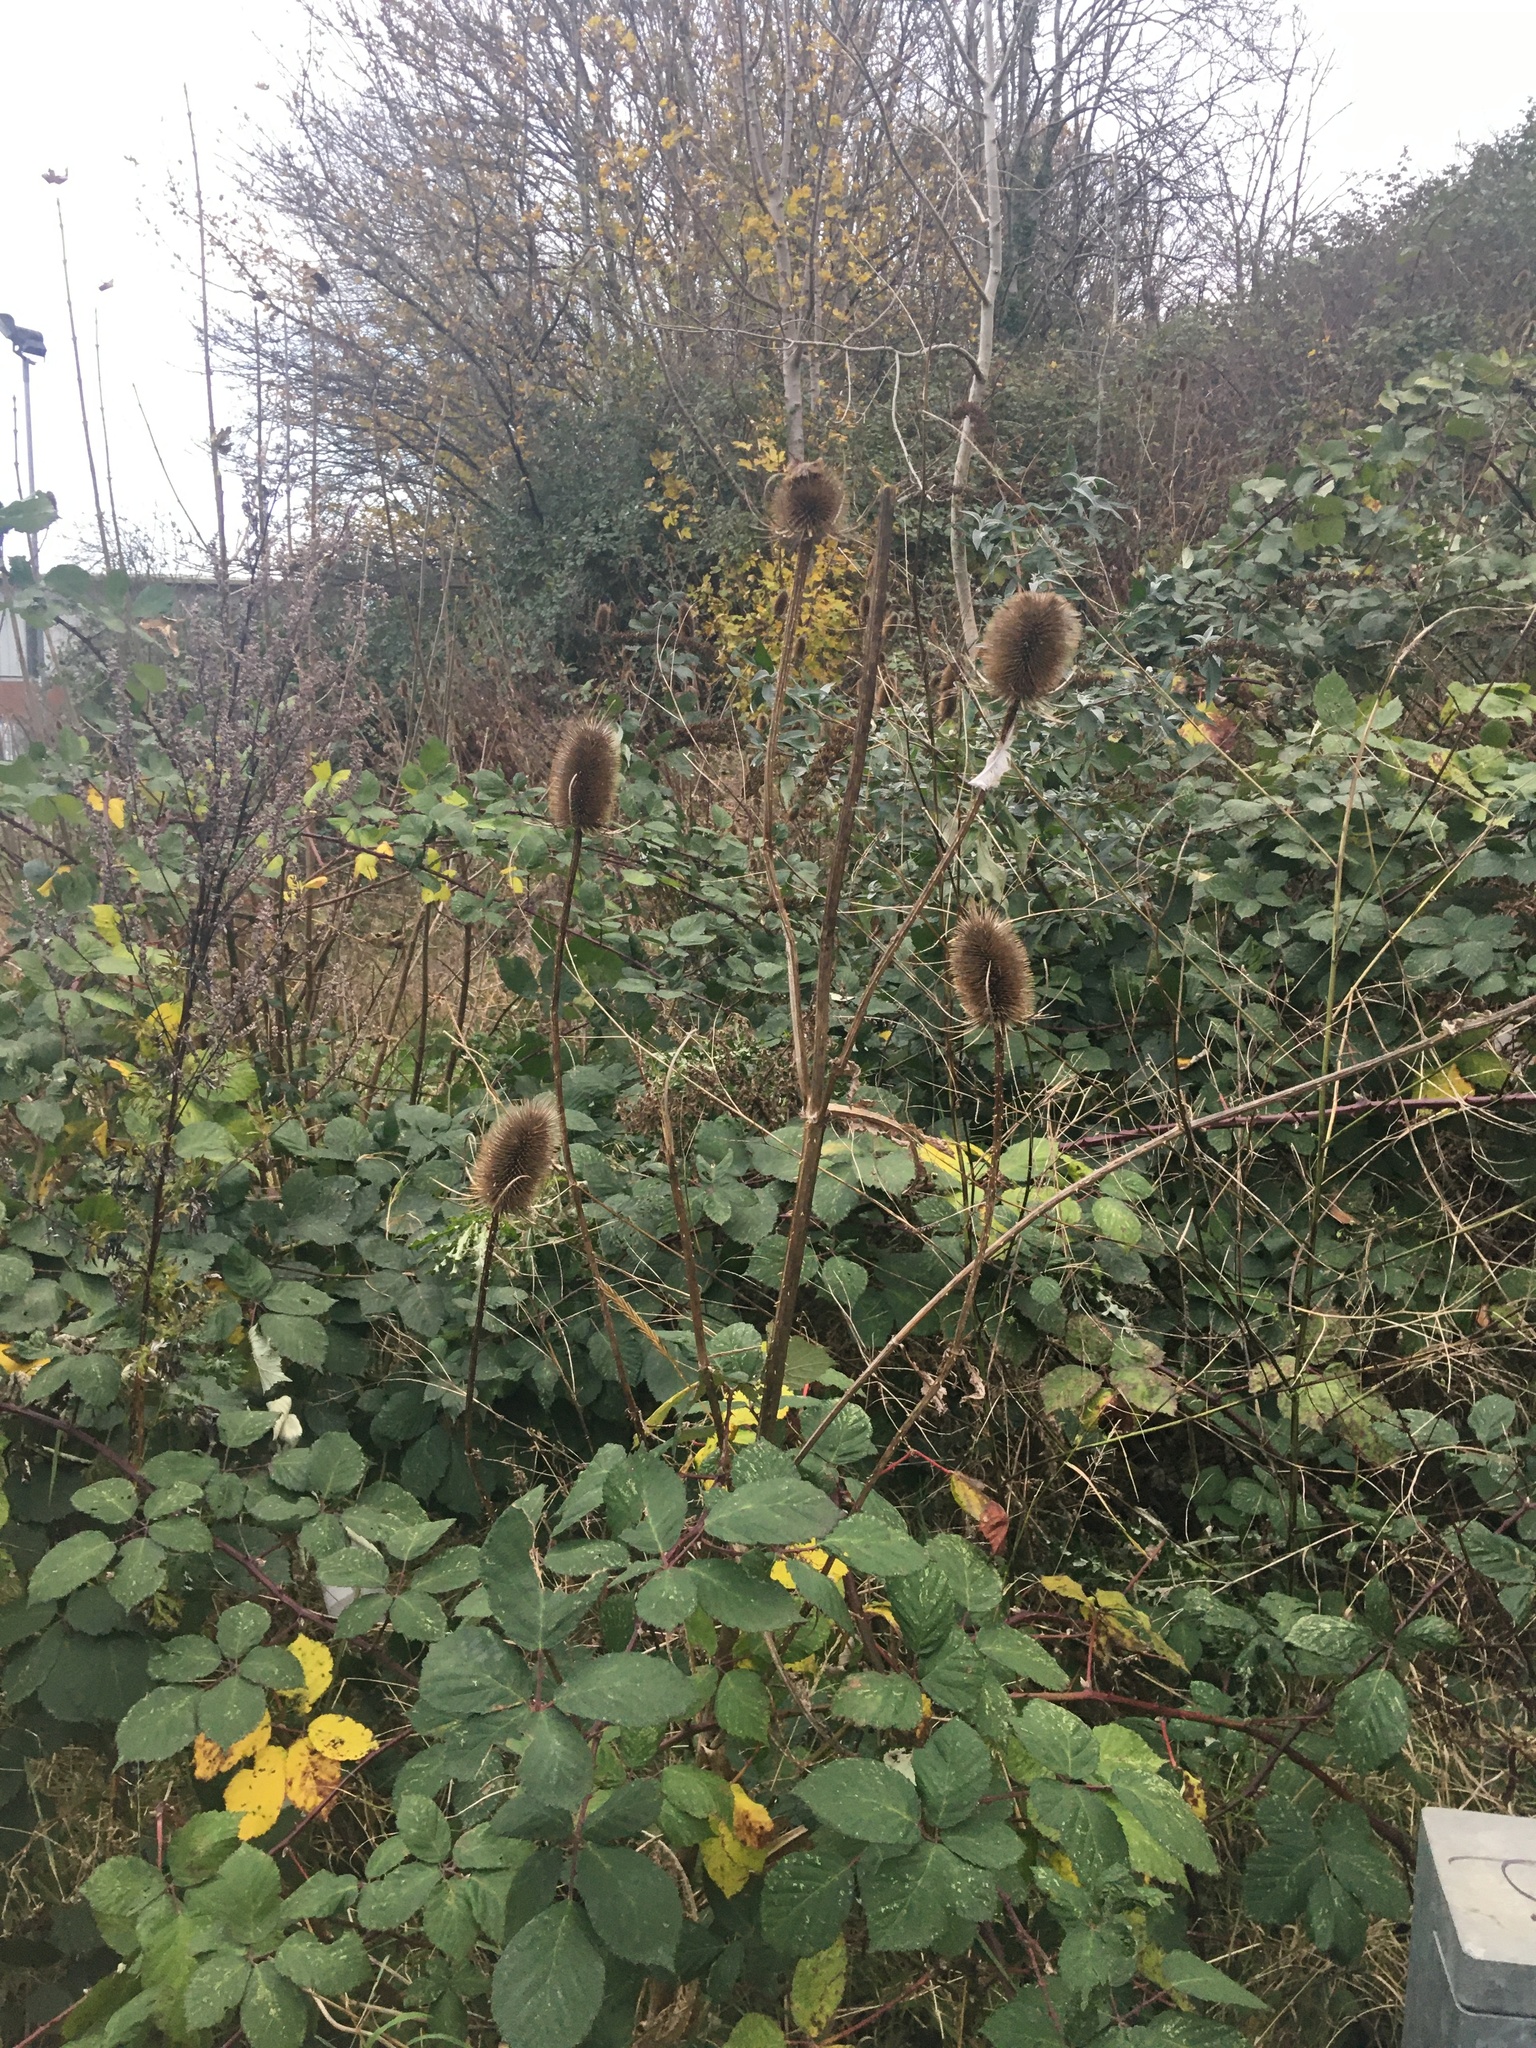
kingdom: Plantae
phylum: Tracheophyta
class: Magnoliopsida
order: Dipsacales
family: Caprifoliaceae
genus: Dipsacus
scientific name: Dipsacus fullonum
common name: Teasel
